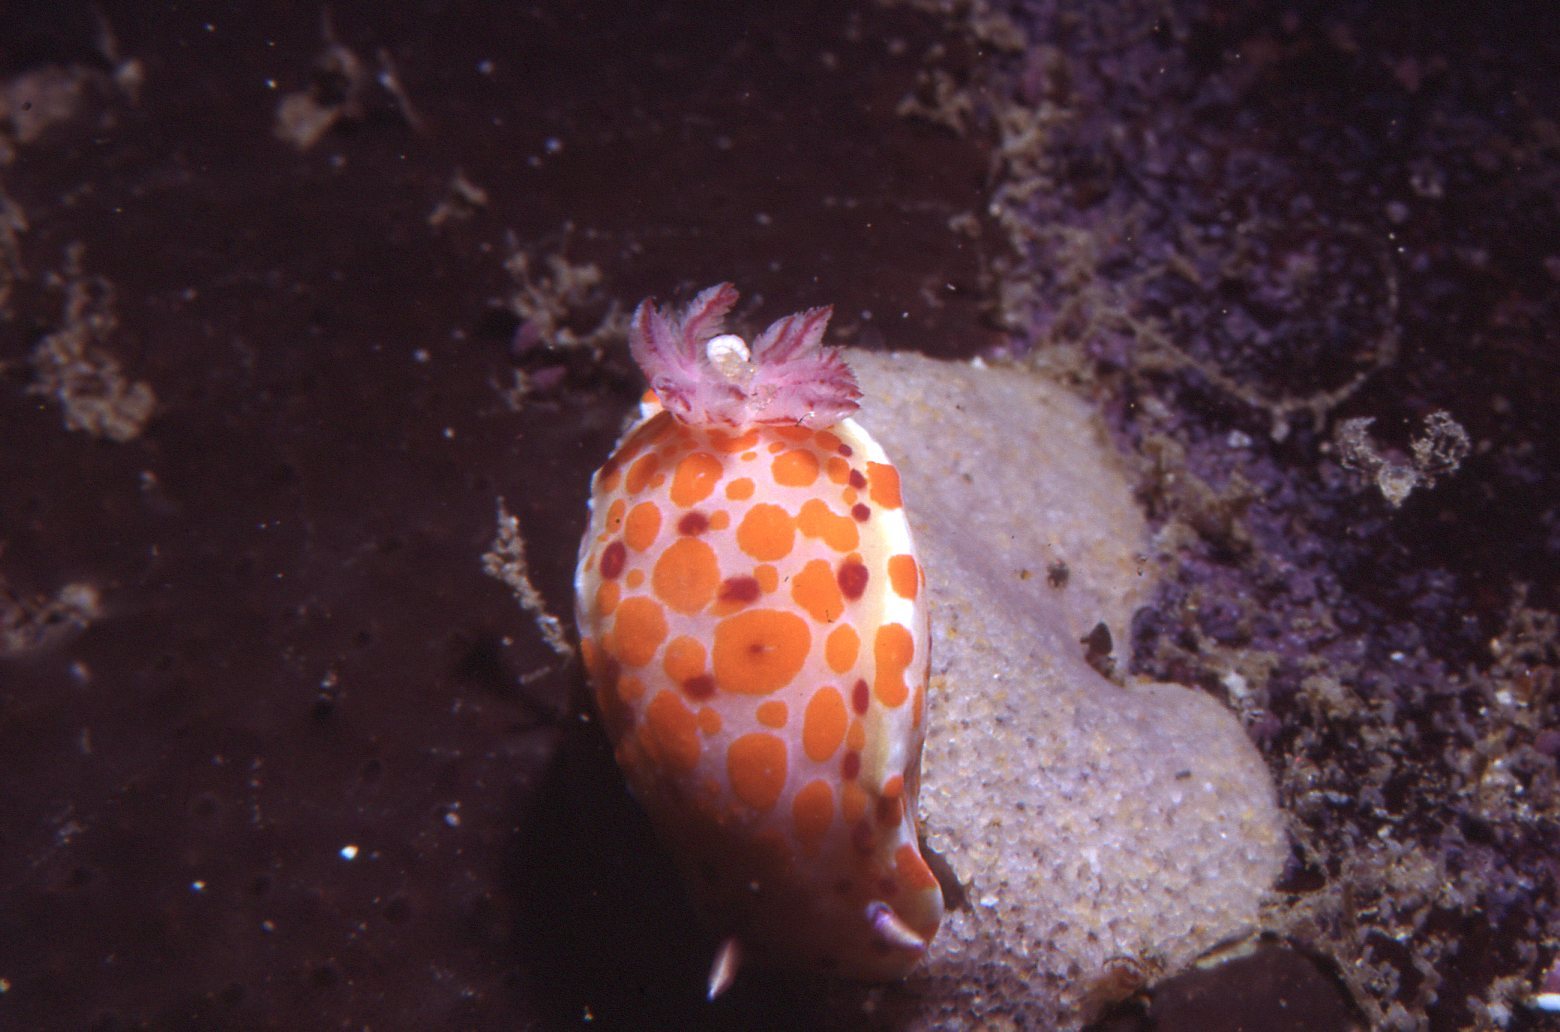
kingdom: Animalia
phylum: Mollusca
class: Gastropoda
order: Nudibranchia
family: Chromodorididae
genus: Ceratosoma
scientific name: Ceratosoma amoenum
